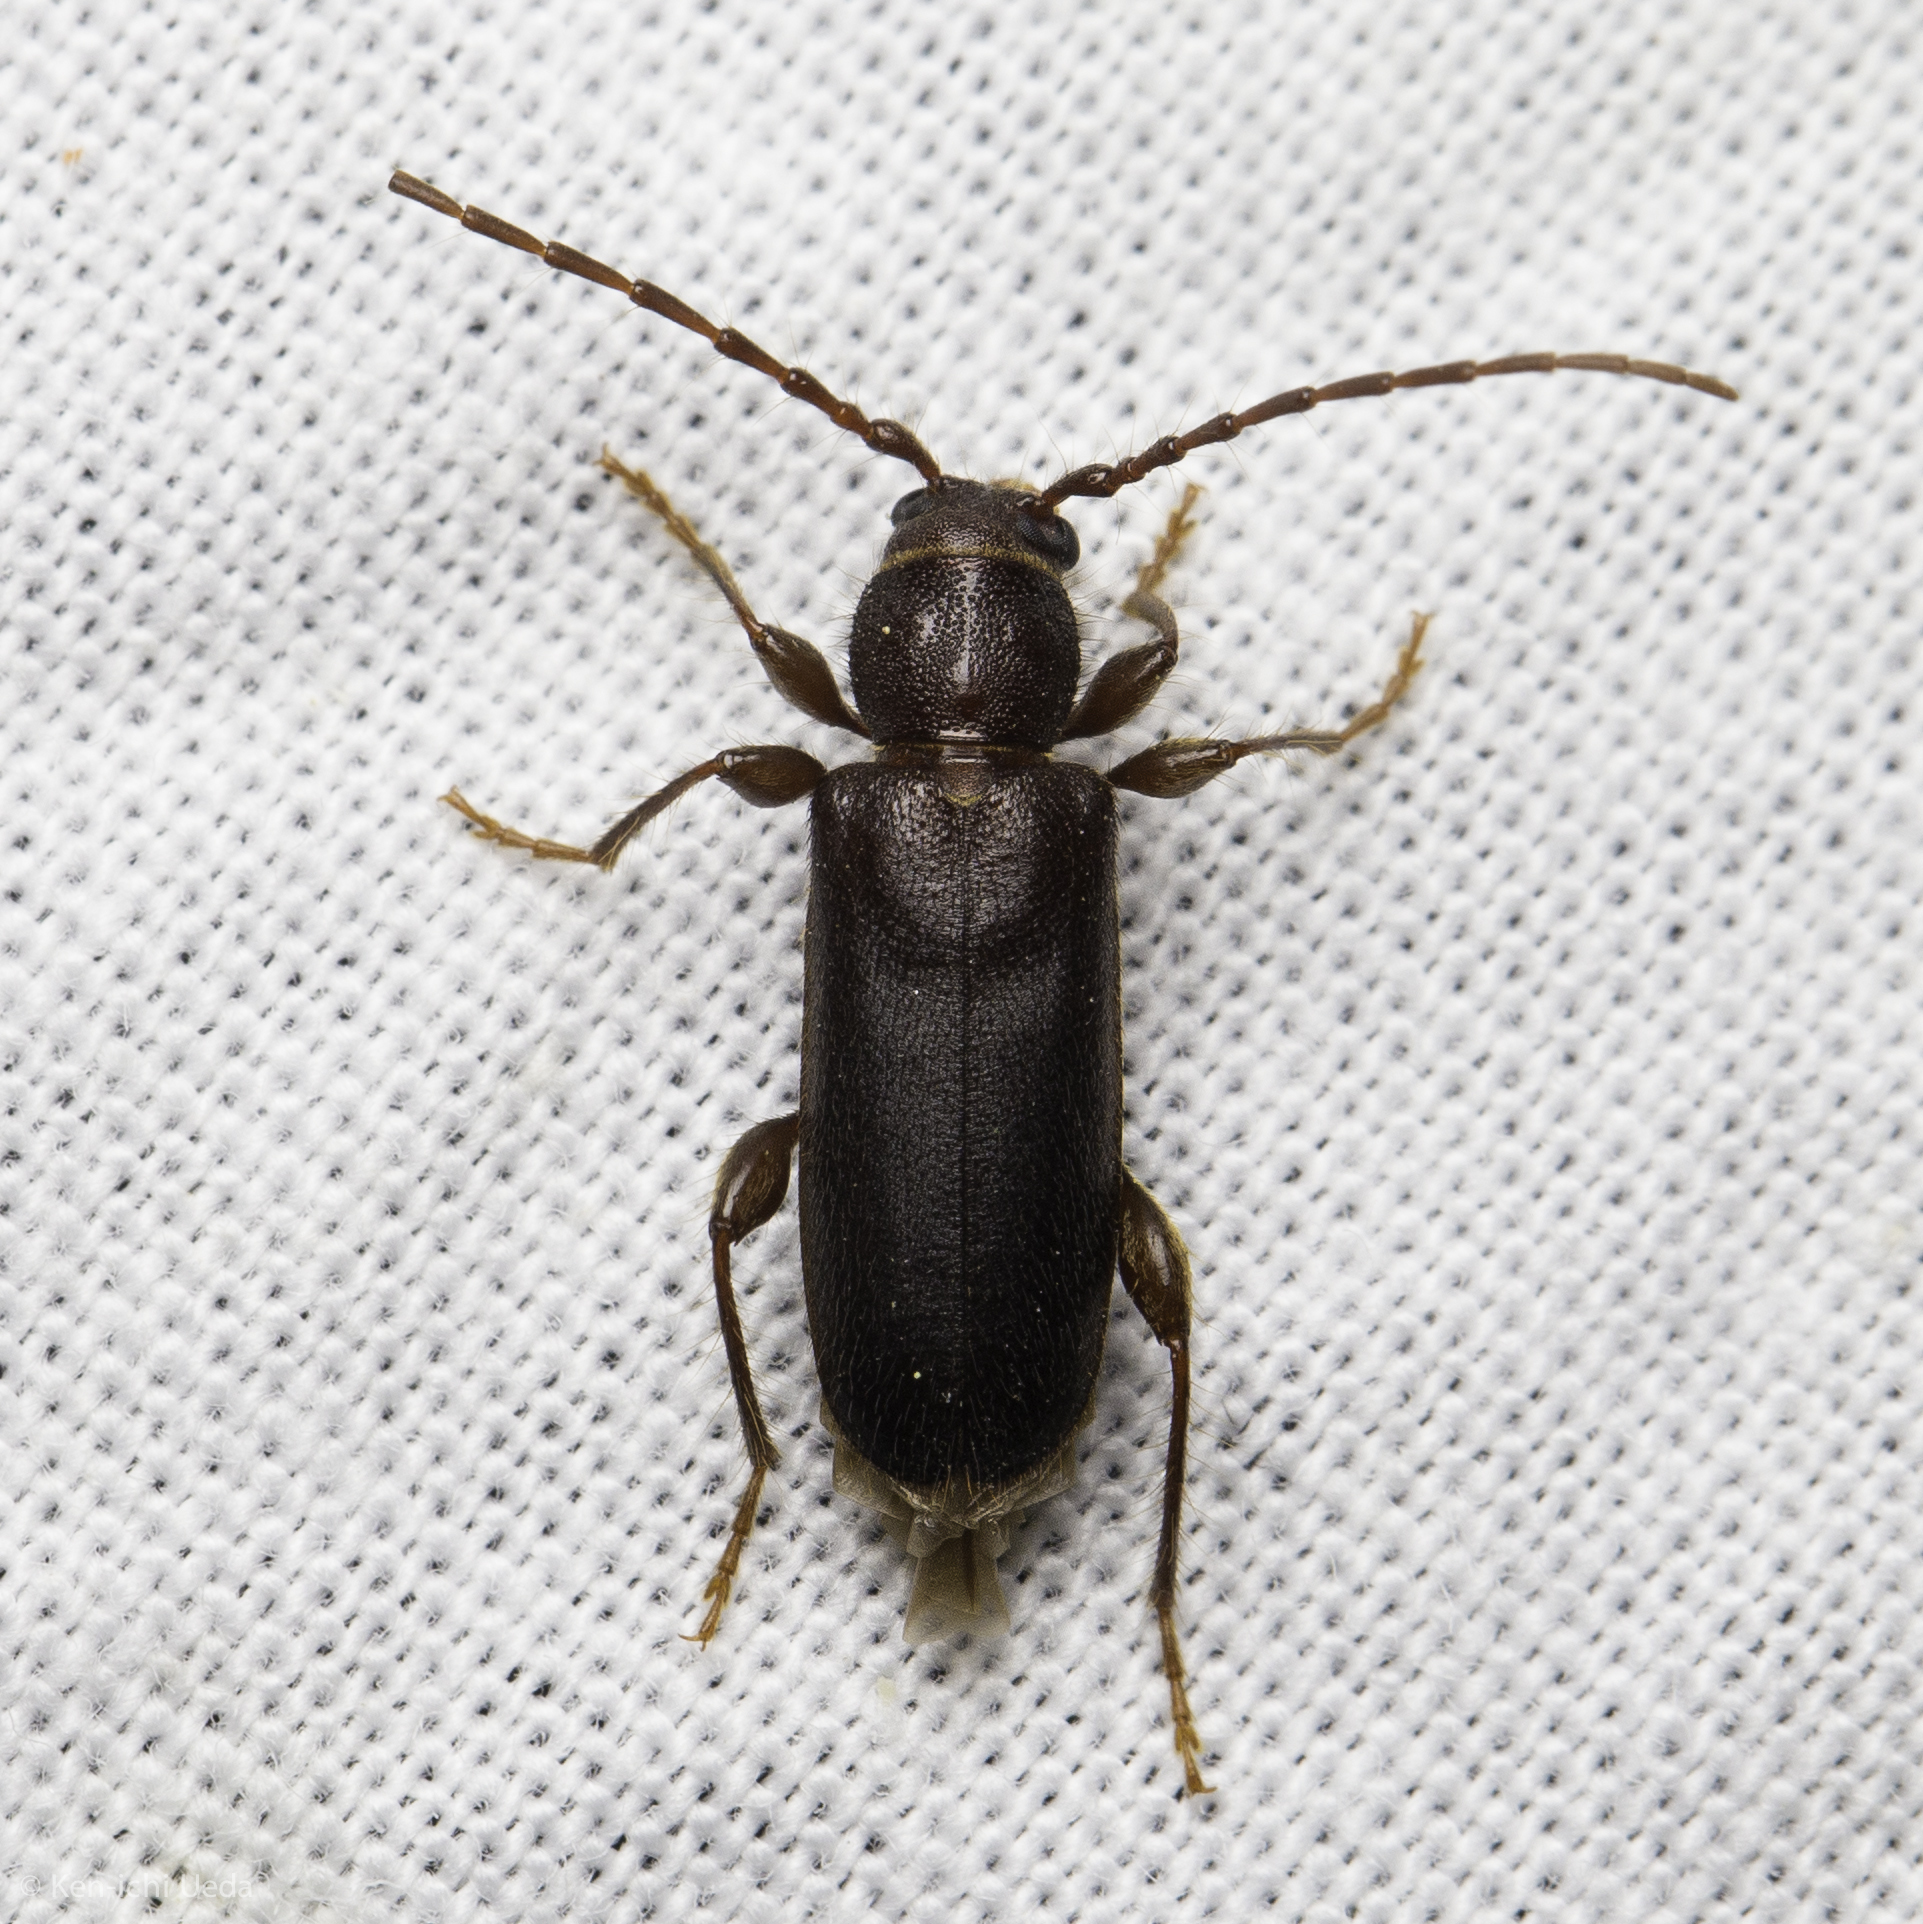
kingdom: Animalia
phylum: Arthropoda
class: Insecta
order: Coleoptera
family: Cerambycidae
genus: Phymatodes
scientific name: Phymatodes grandis
